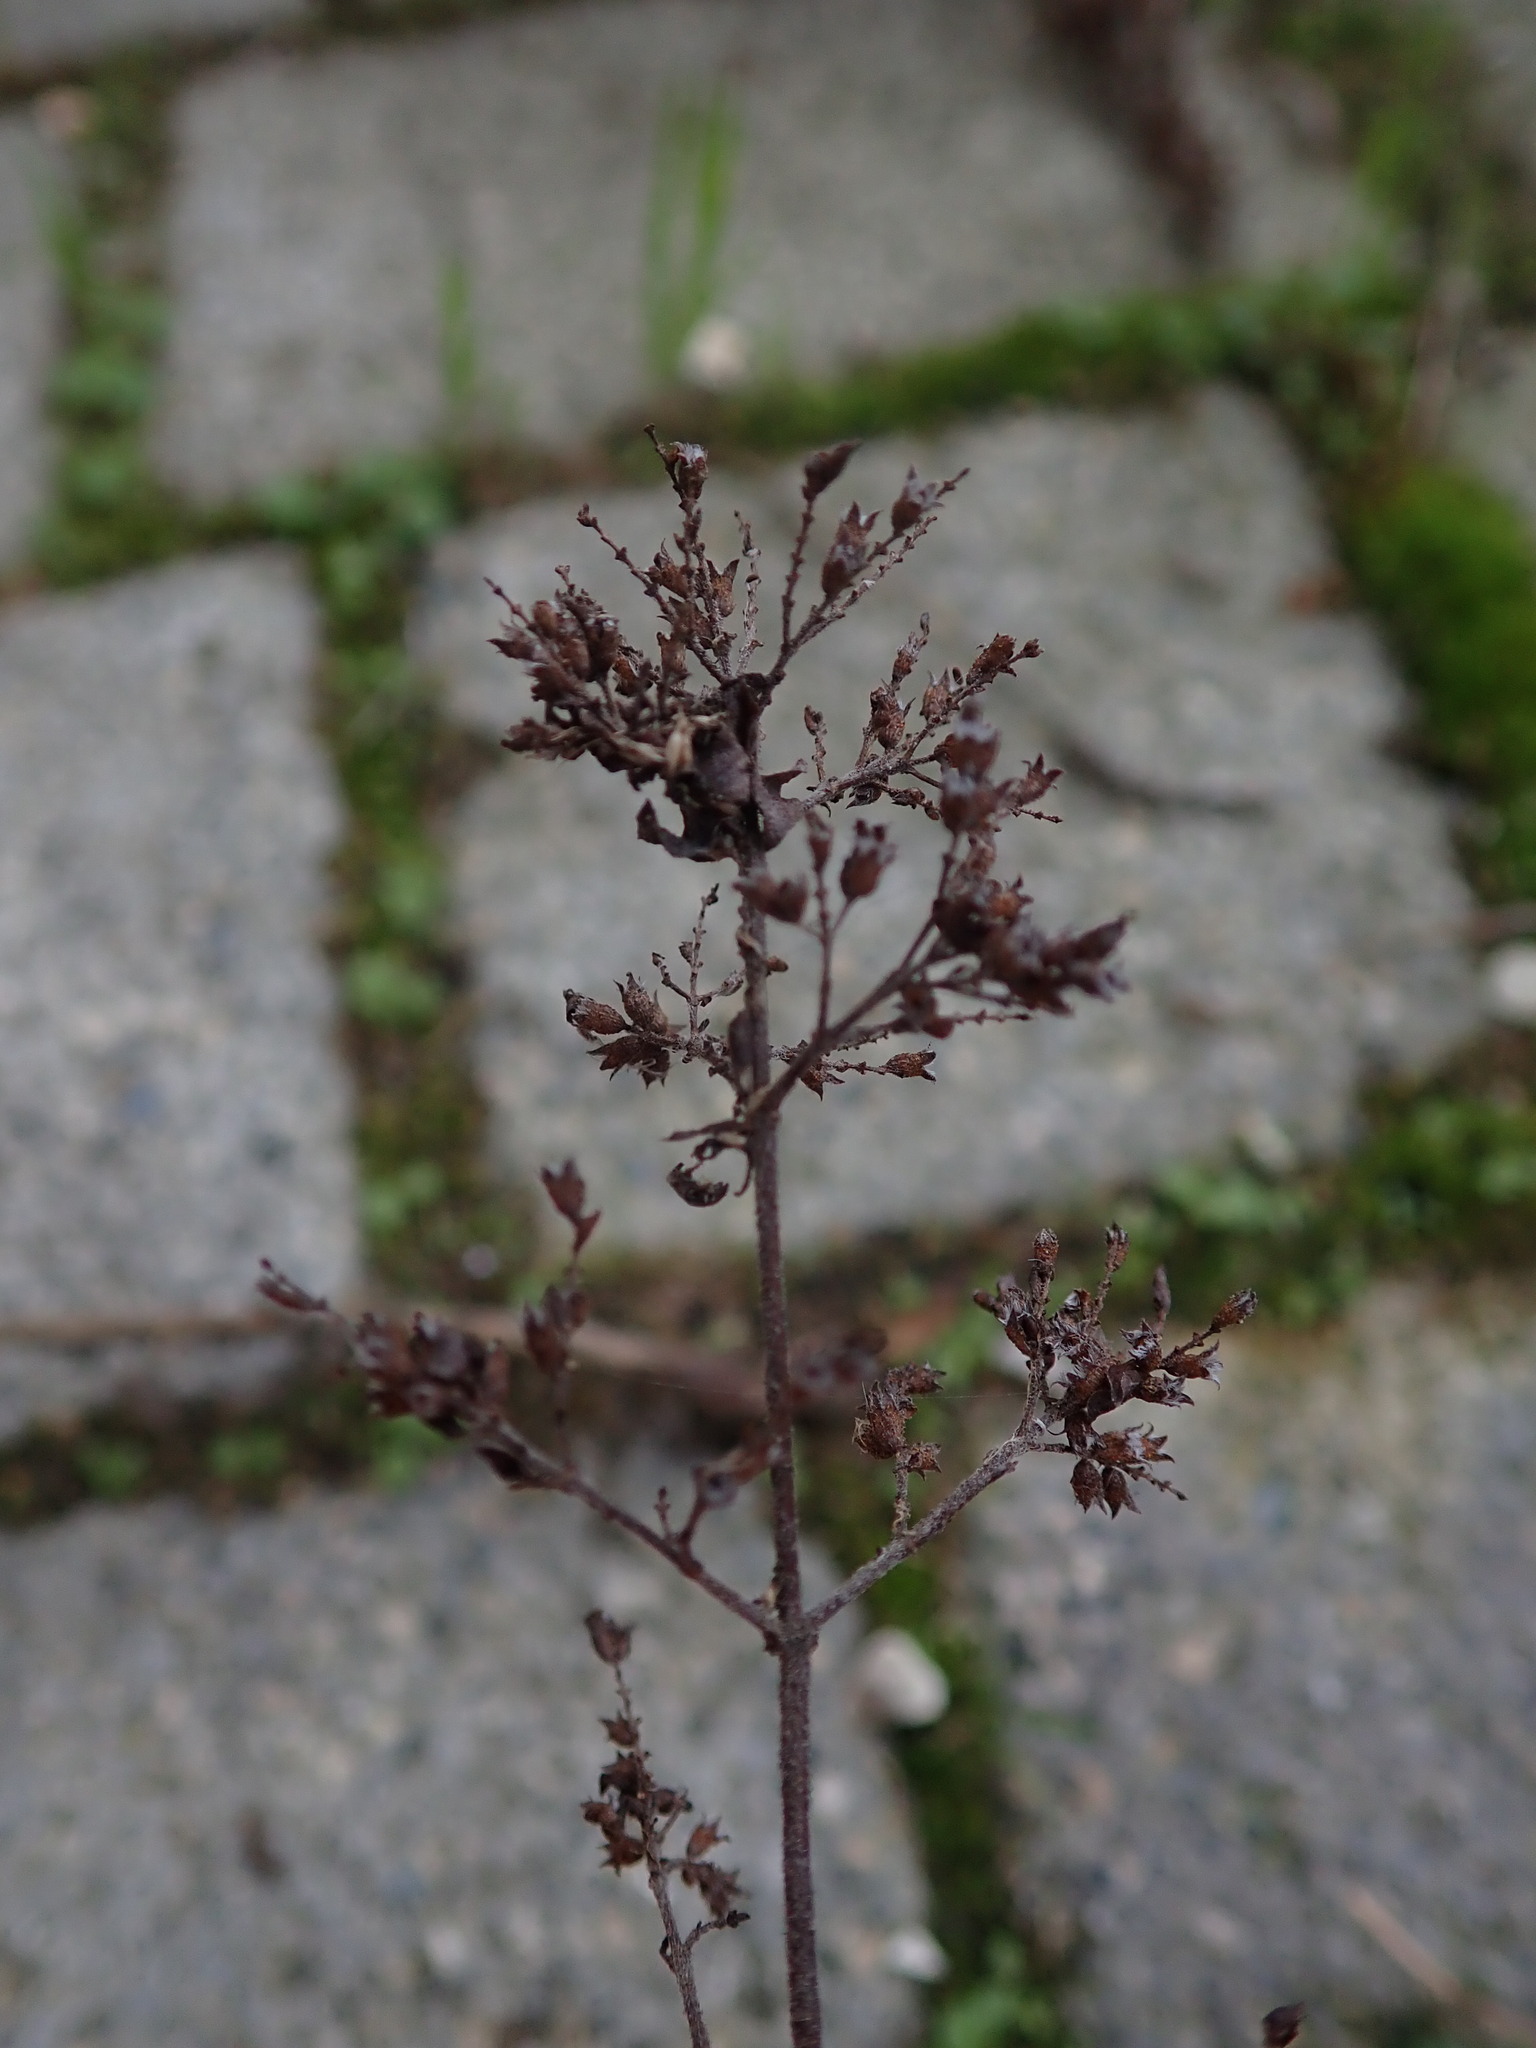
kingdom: Plantae
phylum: Tracheophyta
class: Magnoliopsida
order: Lamiales
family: Lamiaceae
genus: Origanum
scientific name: Origanum vulgare
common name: Wild marjoram
